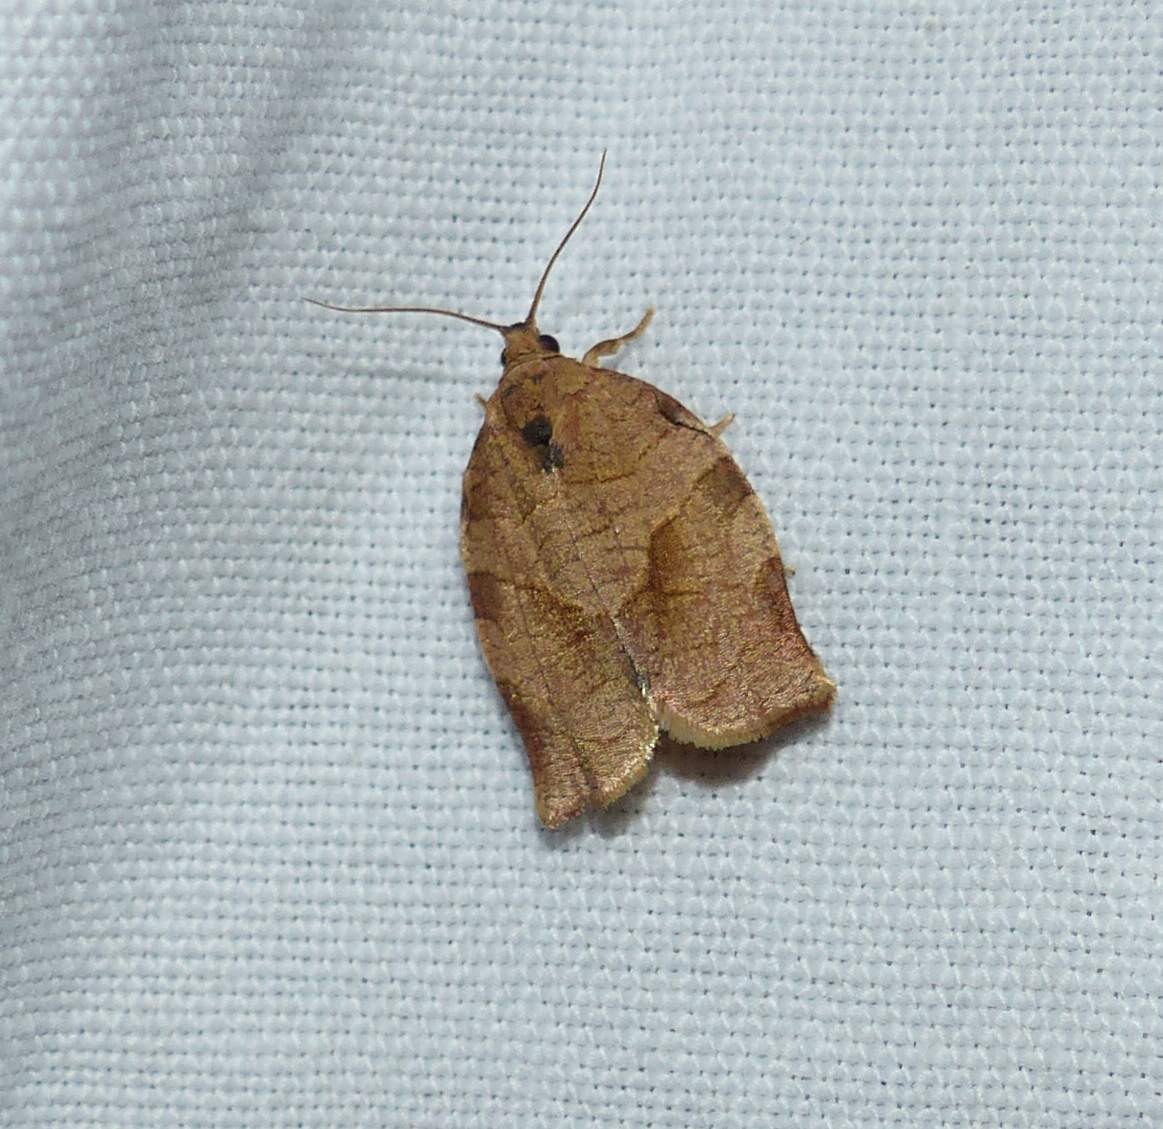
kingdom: Animalia
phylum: Arthropoda
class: Insecta
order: Lepidoptera
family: Tortricidae
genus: Choristoneura
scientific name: Choristoneura rosaceana
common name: Oblique-banded leafroller moth
